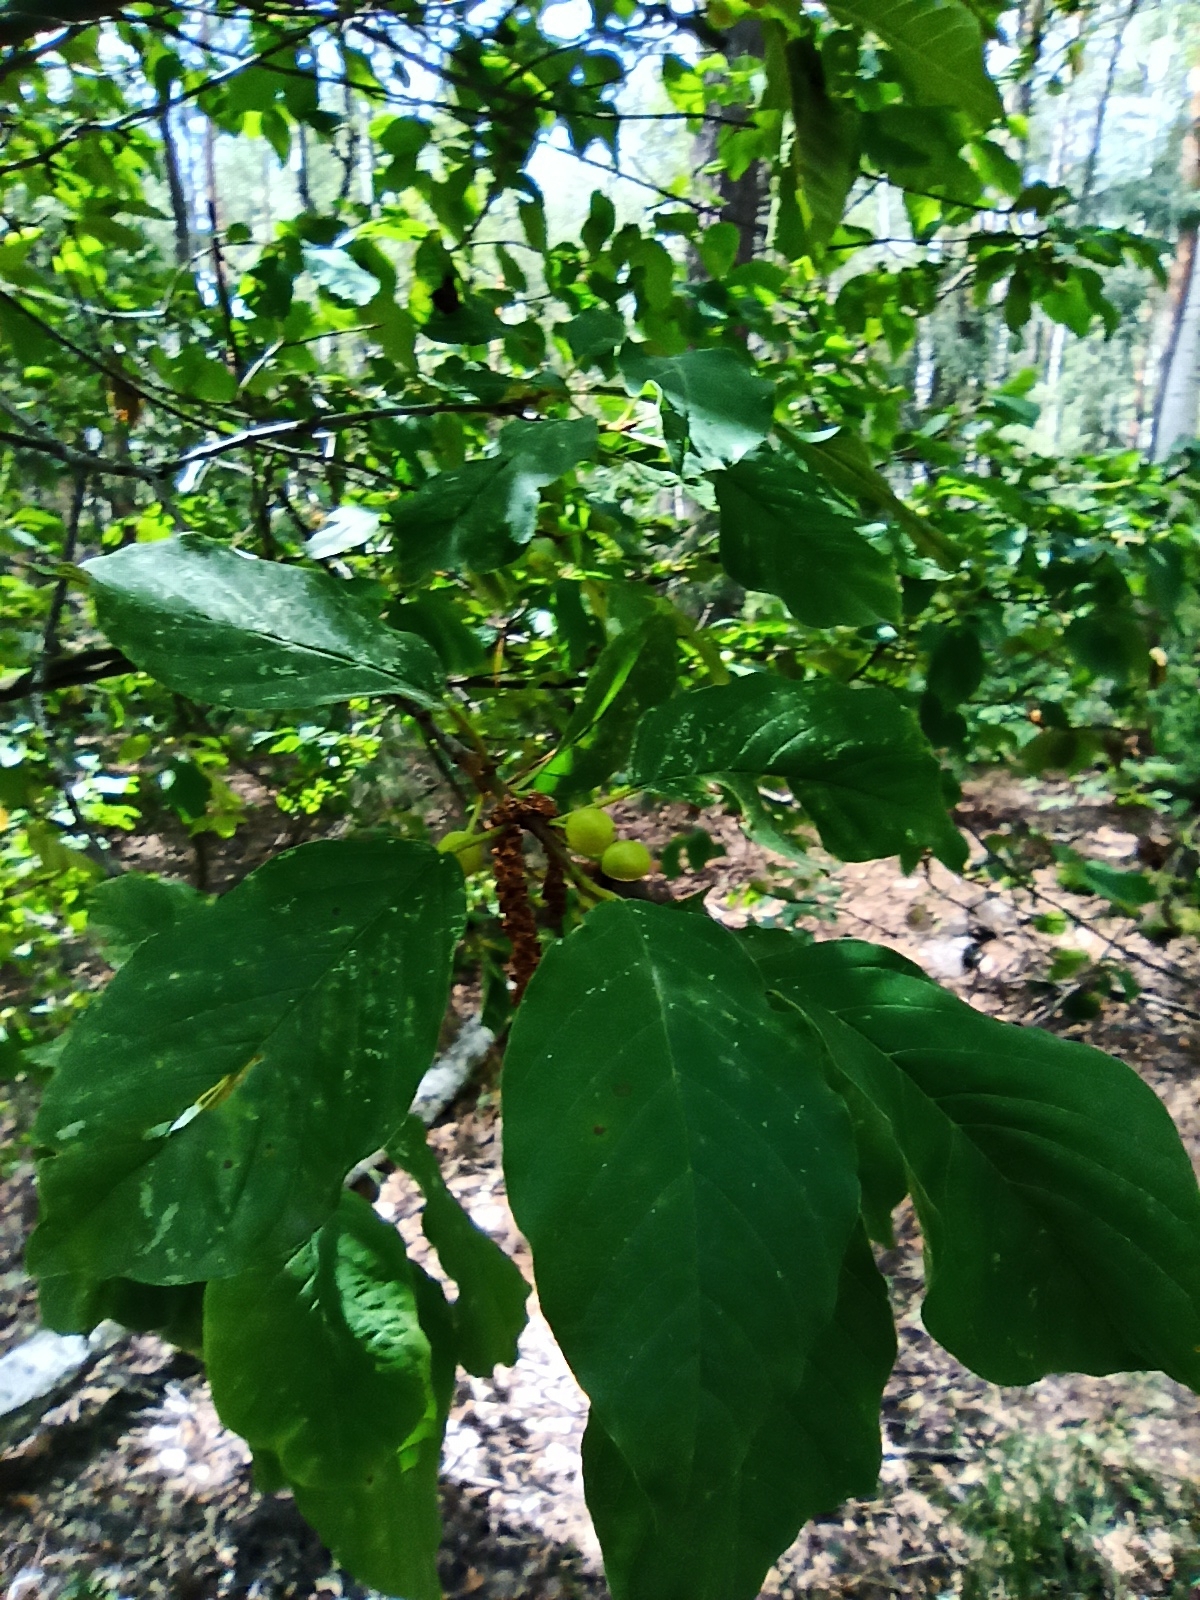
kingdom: Plantae
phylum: Tracheophyta
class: Magnoliopsida
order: Rosales
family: Rhamnaceae
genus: Frangula
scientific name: Frangula alnus
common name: Alder buckthorn
